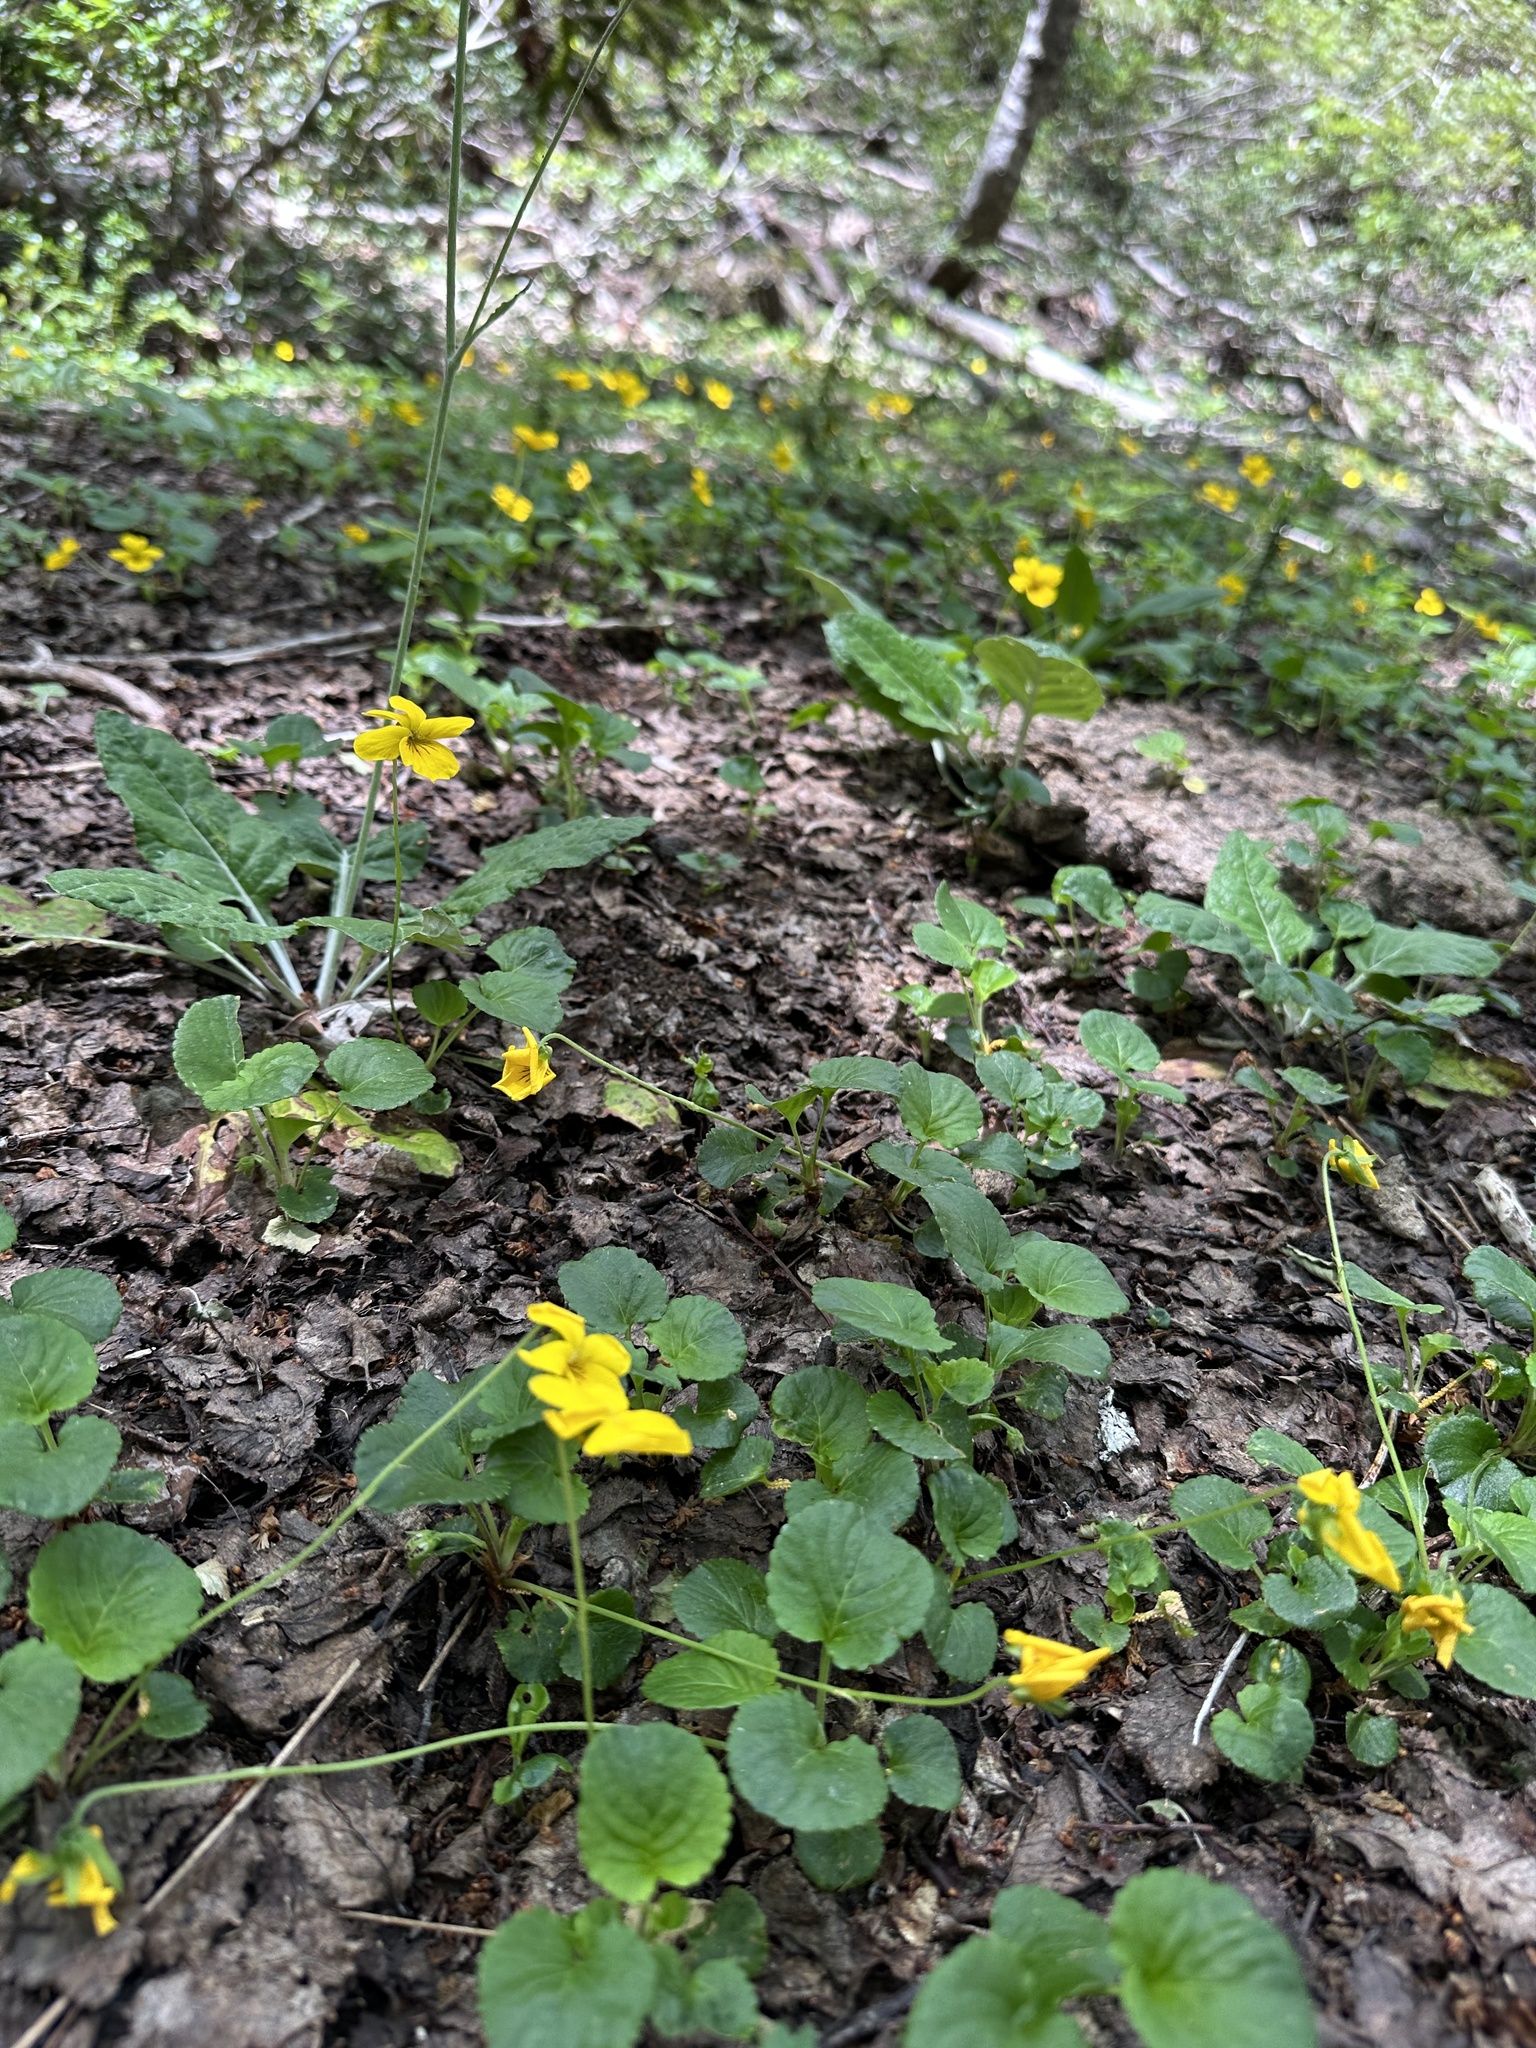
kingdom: Plantae
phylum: Tracheophyta
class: Magnoliopsida
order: Malpighiales
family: Violaceae
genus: Viola
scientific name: Viola reichei
